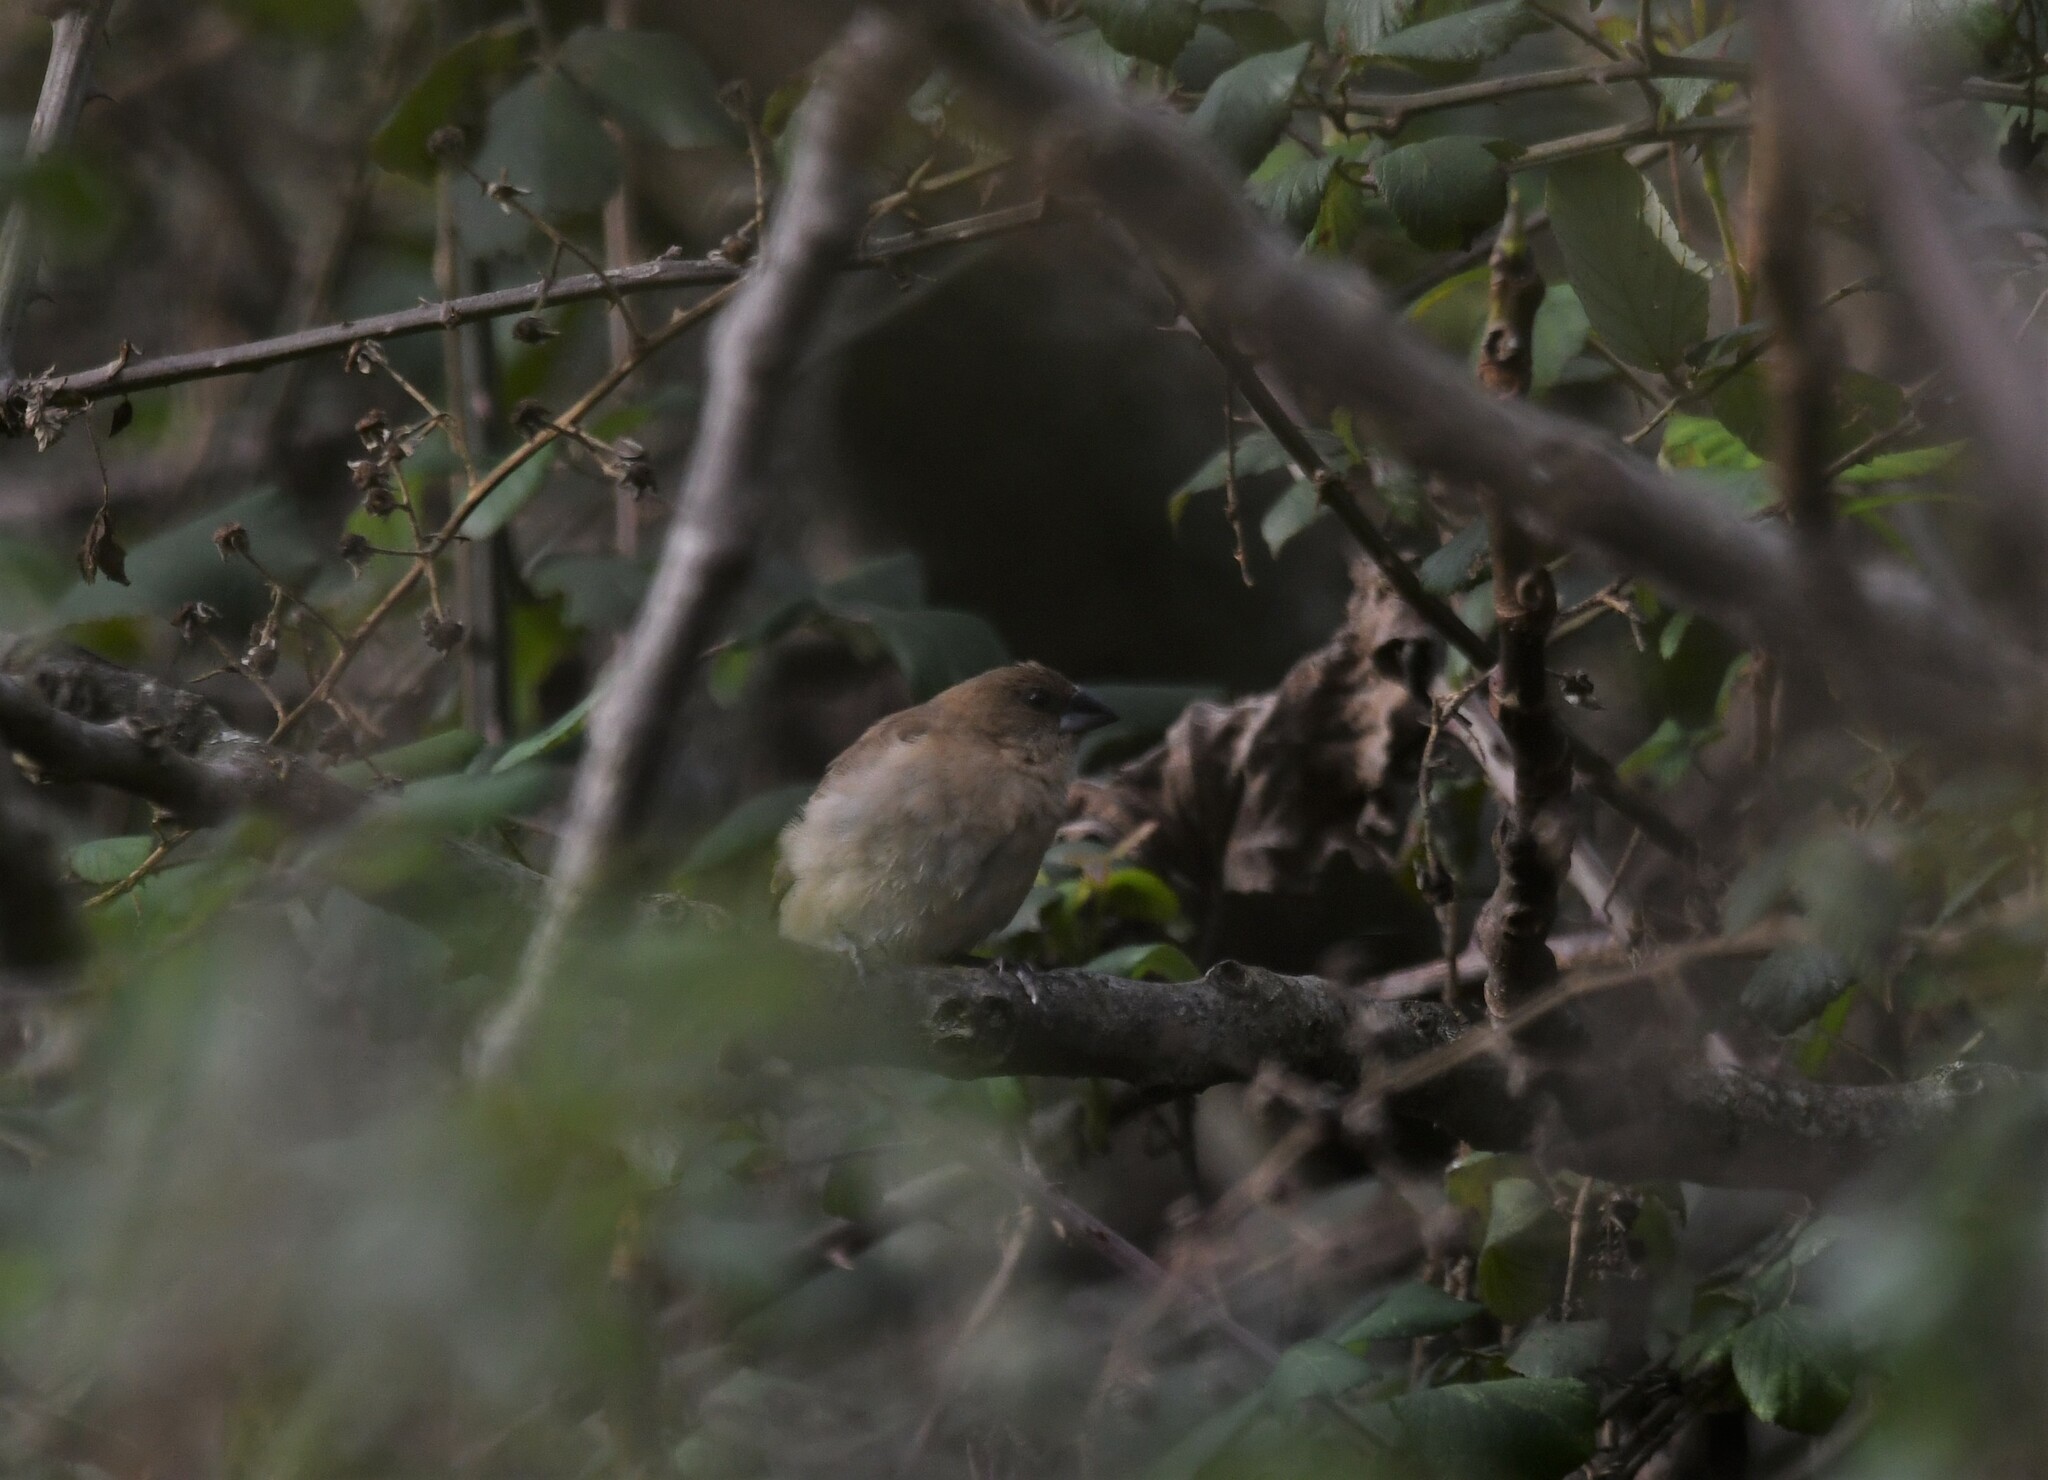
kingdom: Animalia
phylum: Chordata
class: Aves
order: Passeriformes
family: Estrildidae
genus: Lonchura
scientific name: Lonchura punctulata
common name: Scaly-breasted munia
